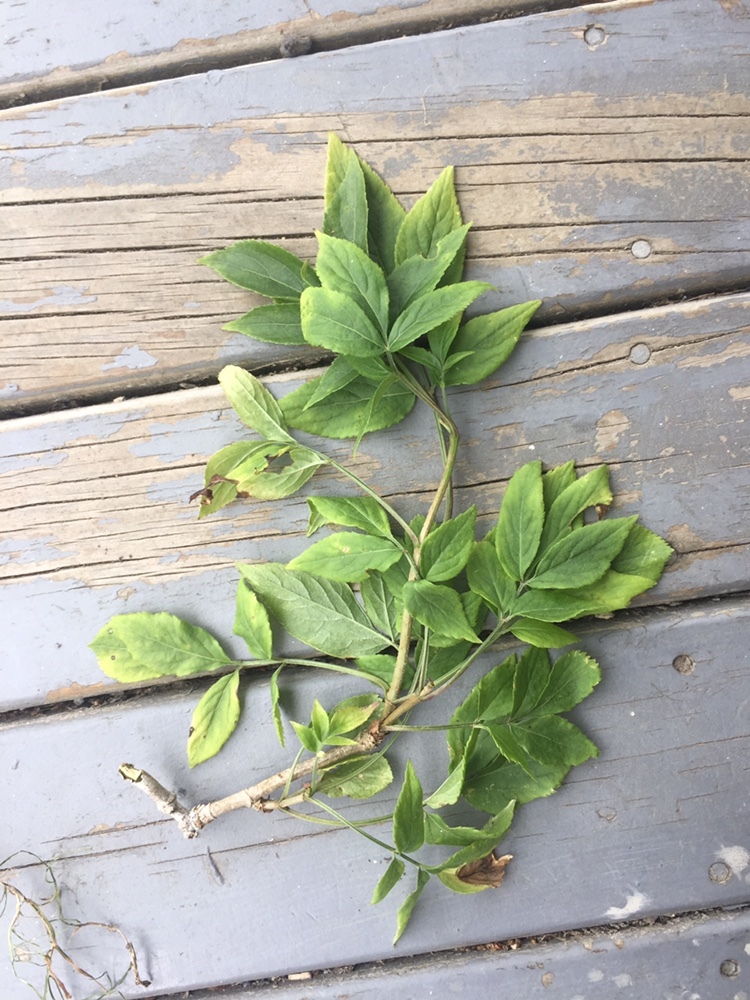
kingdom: Plantae
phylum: Tracheophyta
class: Magnoliopsida
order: Dipsacales
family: Viburnaceae
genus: Sambucus
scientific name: Sambucus nigra
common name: Elder
